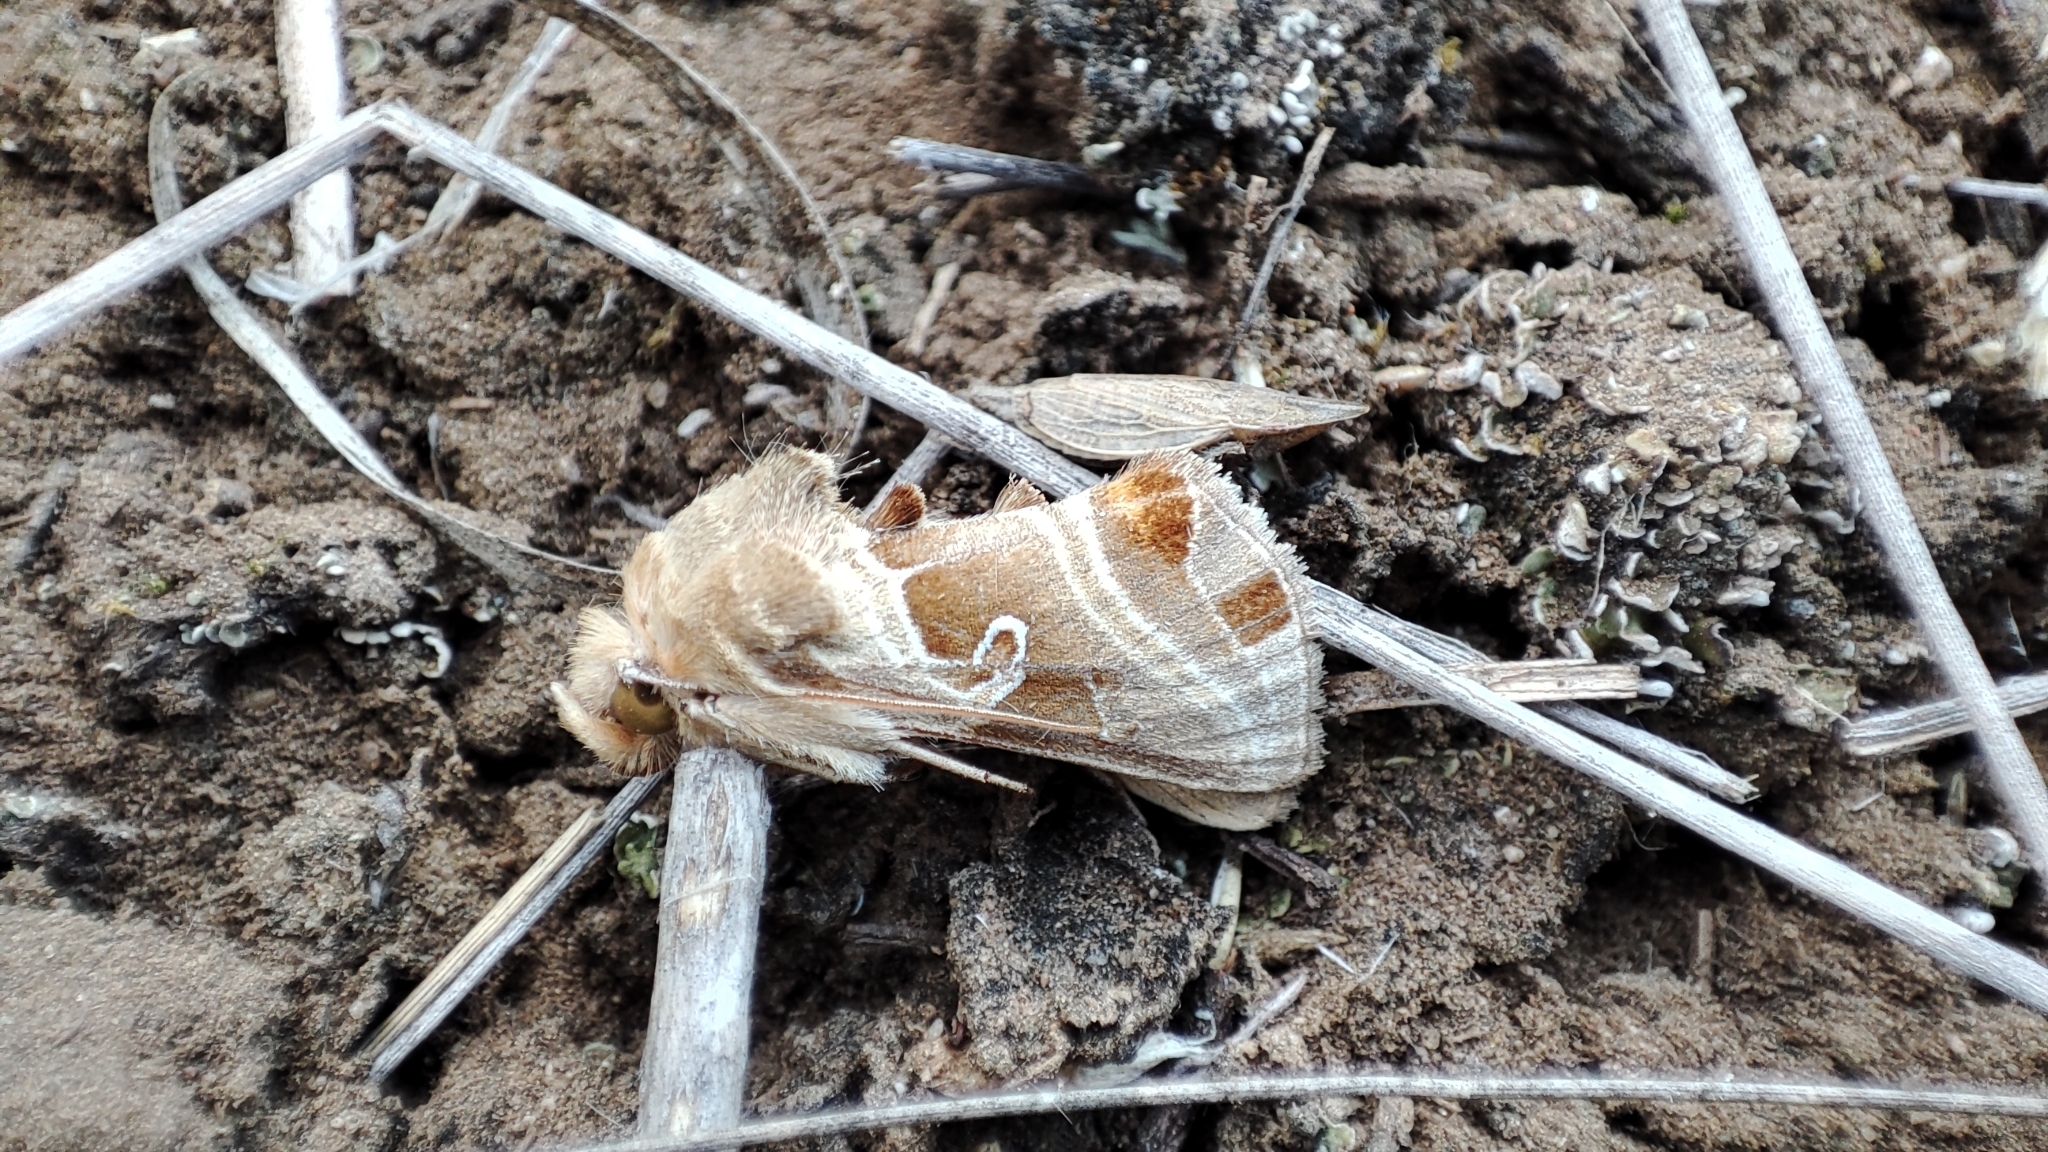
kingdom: Animalia
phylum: Arthropoda
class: Insecta
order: Lepidoptera
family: Noctuidae
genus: Euchalcia
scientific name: Euchalcia consona
